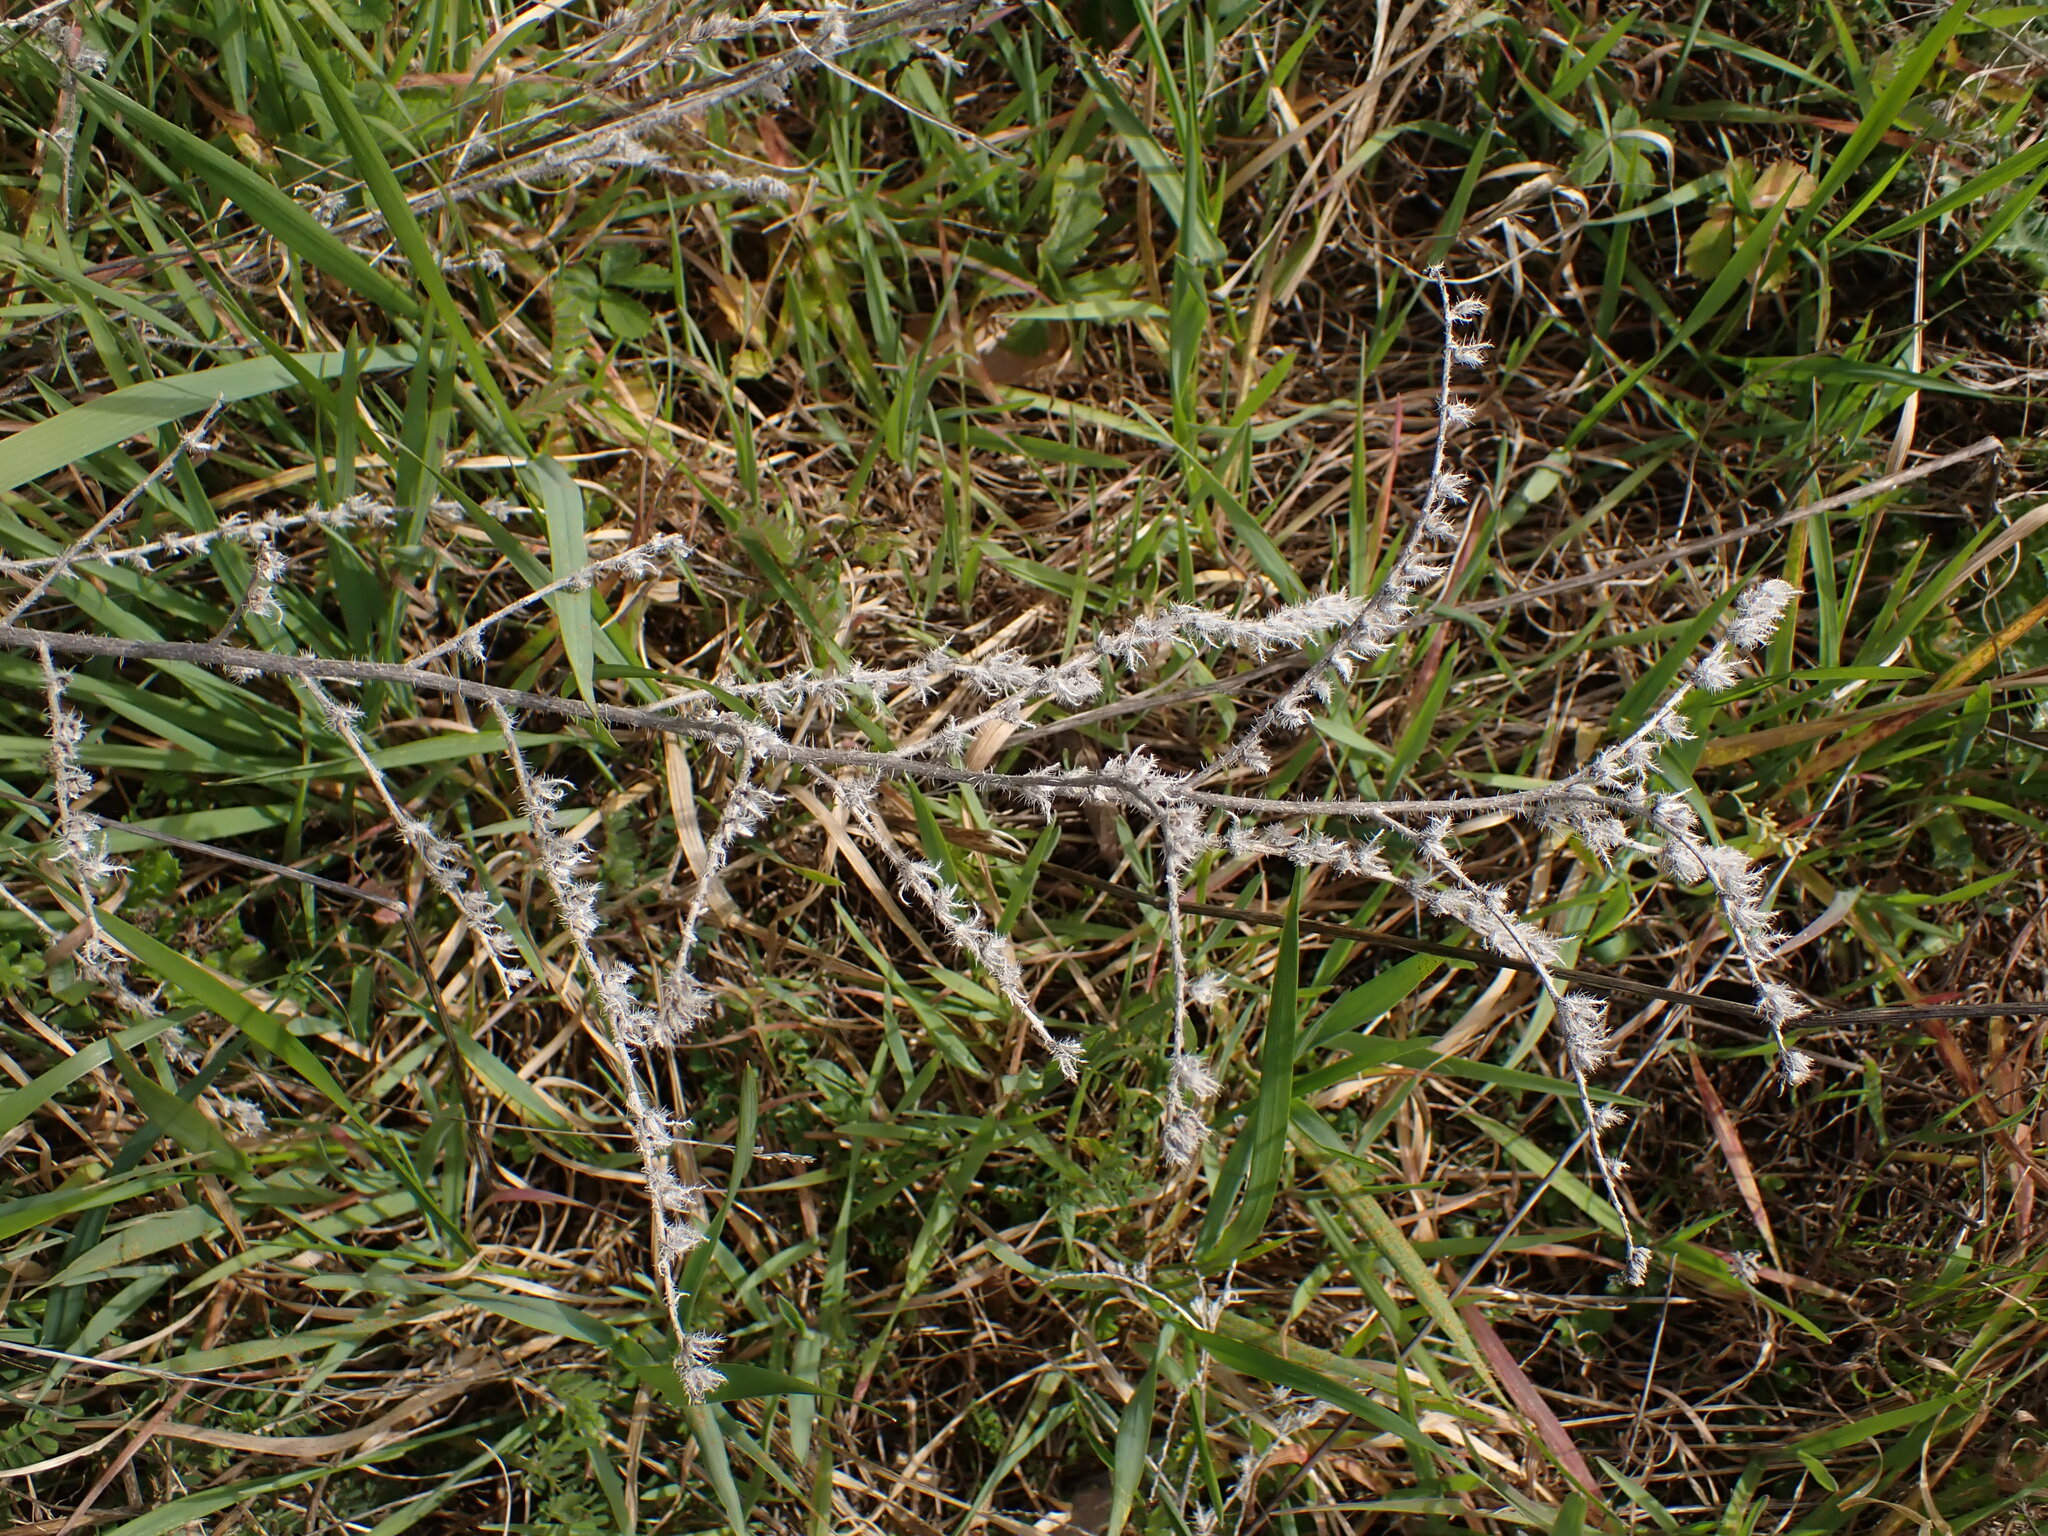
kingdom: Plantae
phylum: Tracheophyta
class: Magnoliopsida
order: Boraginales
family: Boraginaceae
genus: Echium
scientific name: Echium vulgare
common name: Common viper's bugloss
